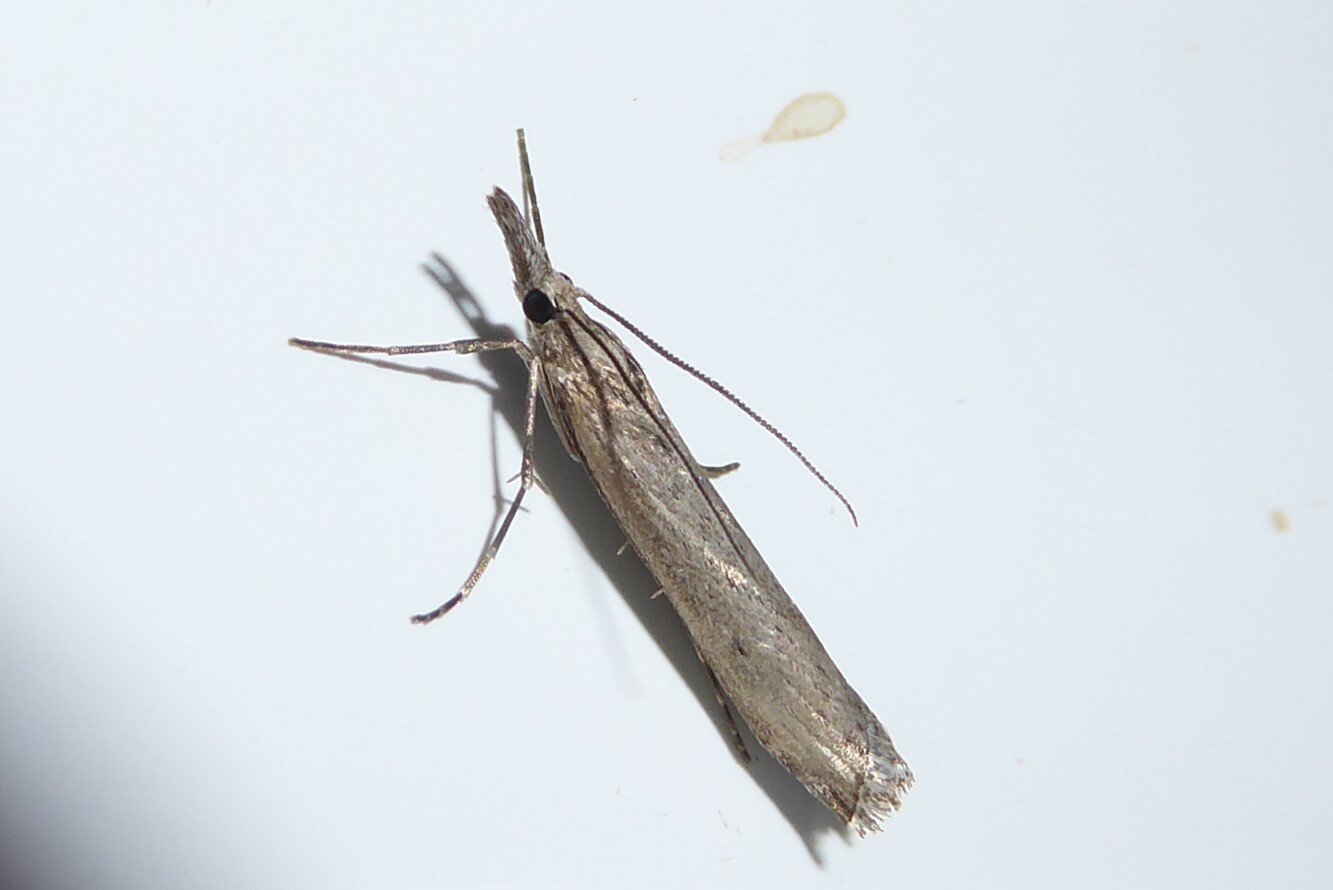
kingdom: Animalia
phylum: Arthropoda
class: Insecta
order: Lepidoptera
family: Crambidae
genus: Orocrambus
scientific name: Orocrambus cyclopicus
